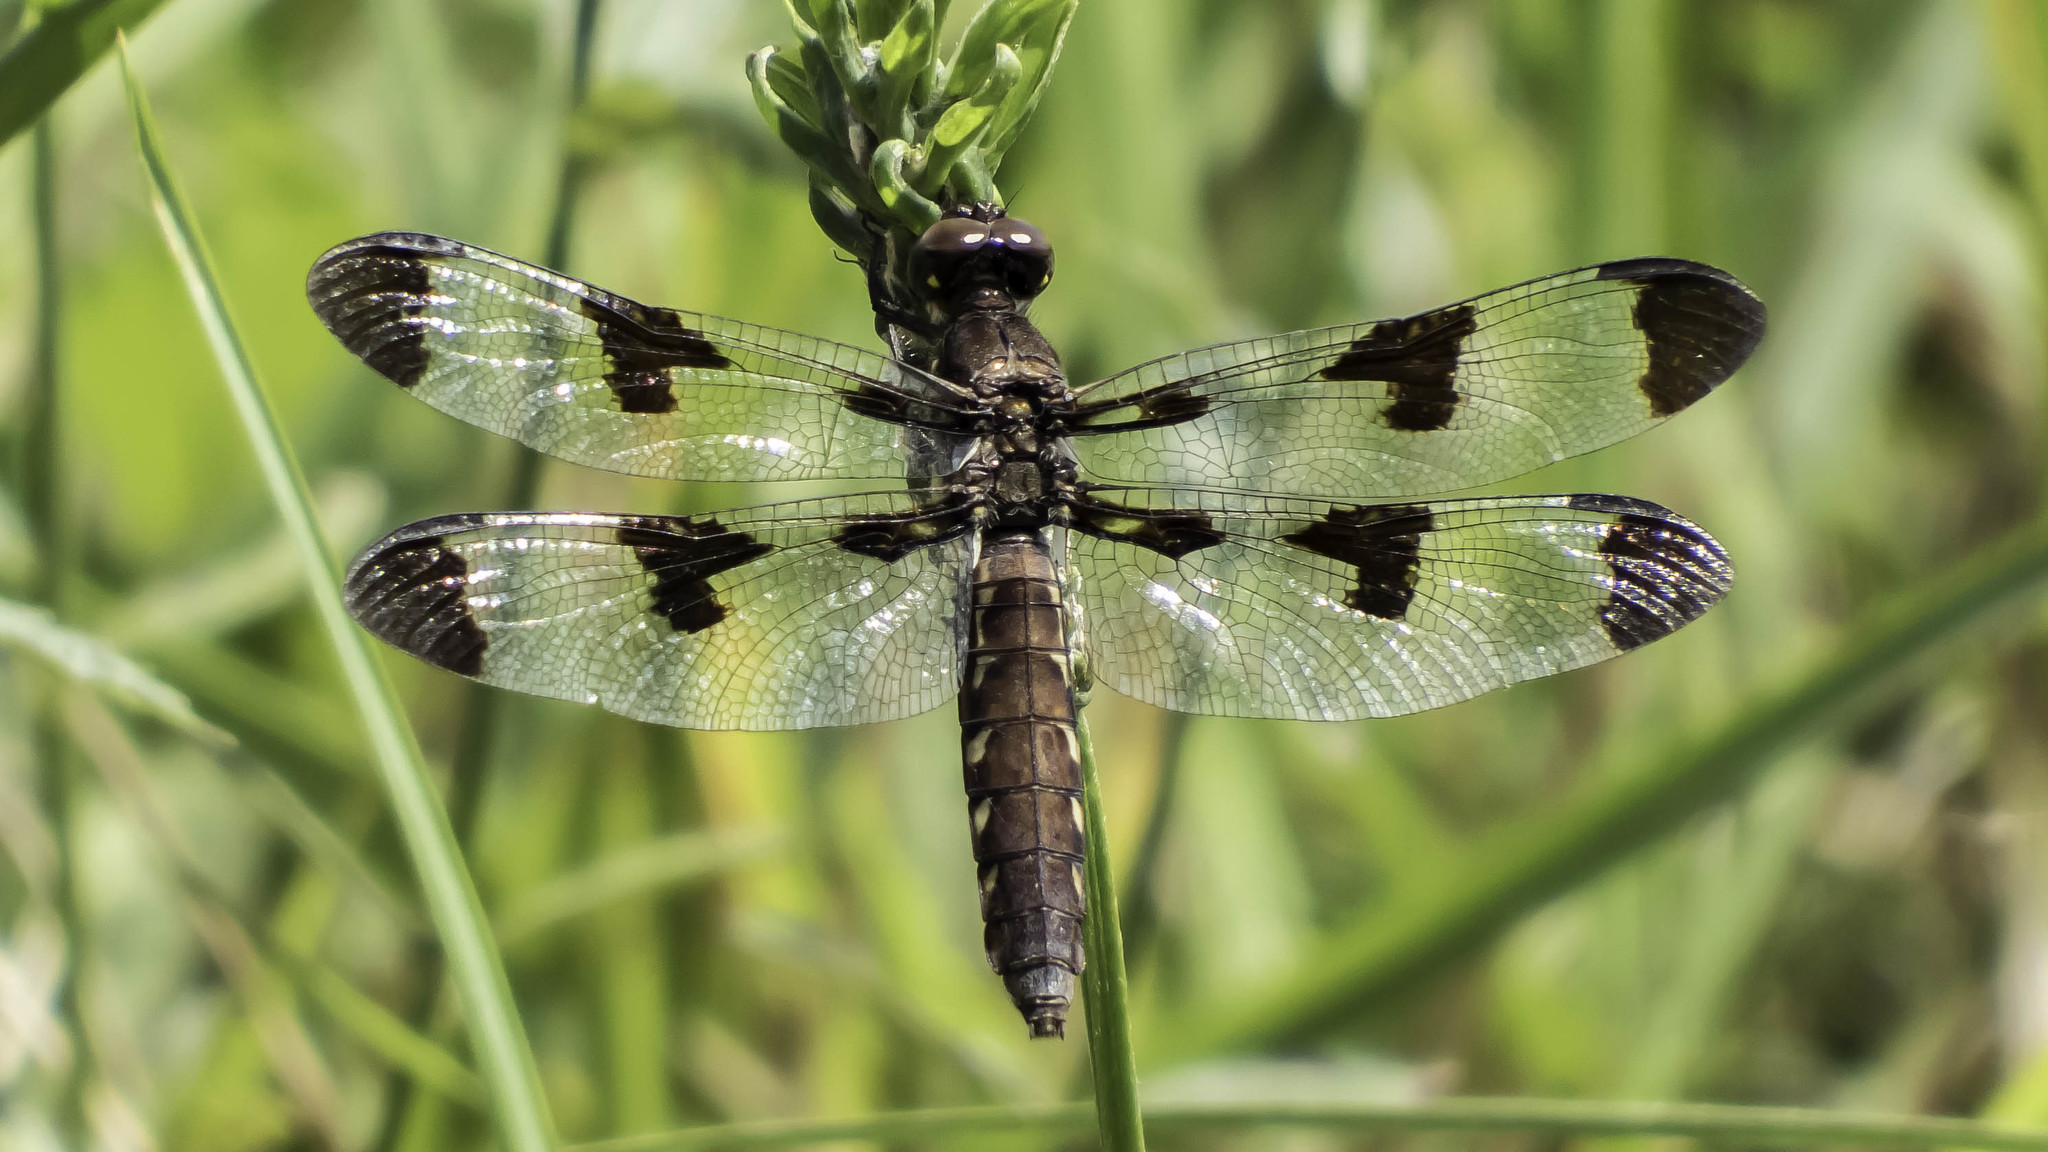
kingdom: Animalia
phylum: Arthropoda
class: Insecta
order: Odonata
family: Libellulidae
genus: Plathemis
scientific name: Plathemis lydia
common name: Common whitetail
